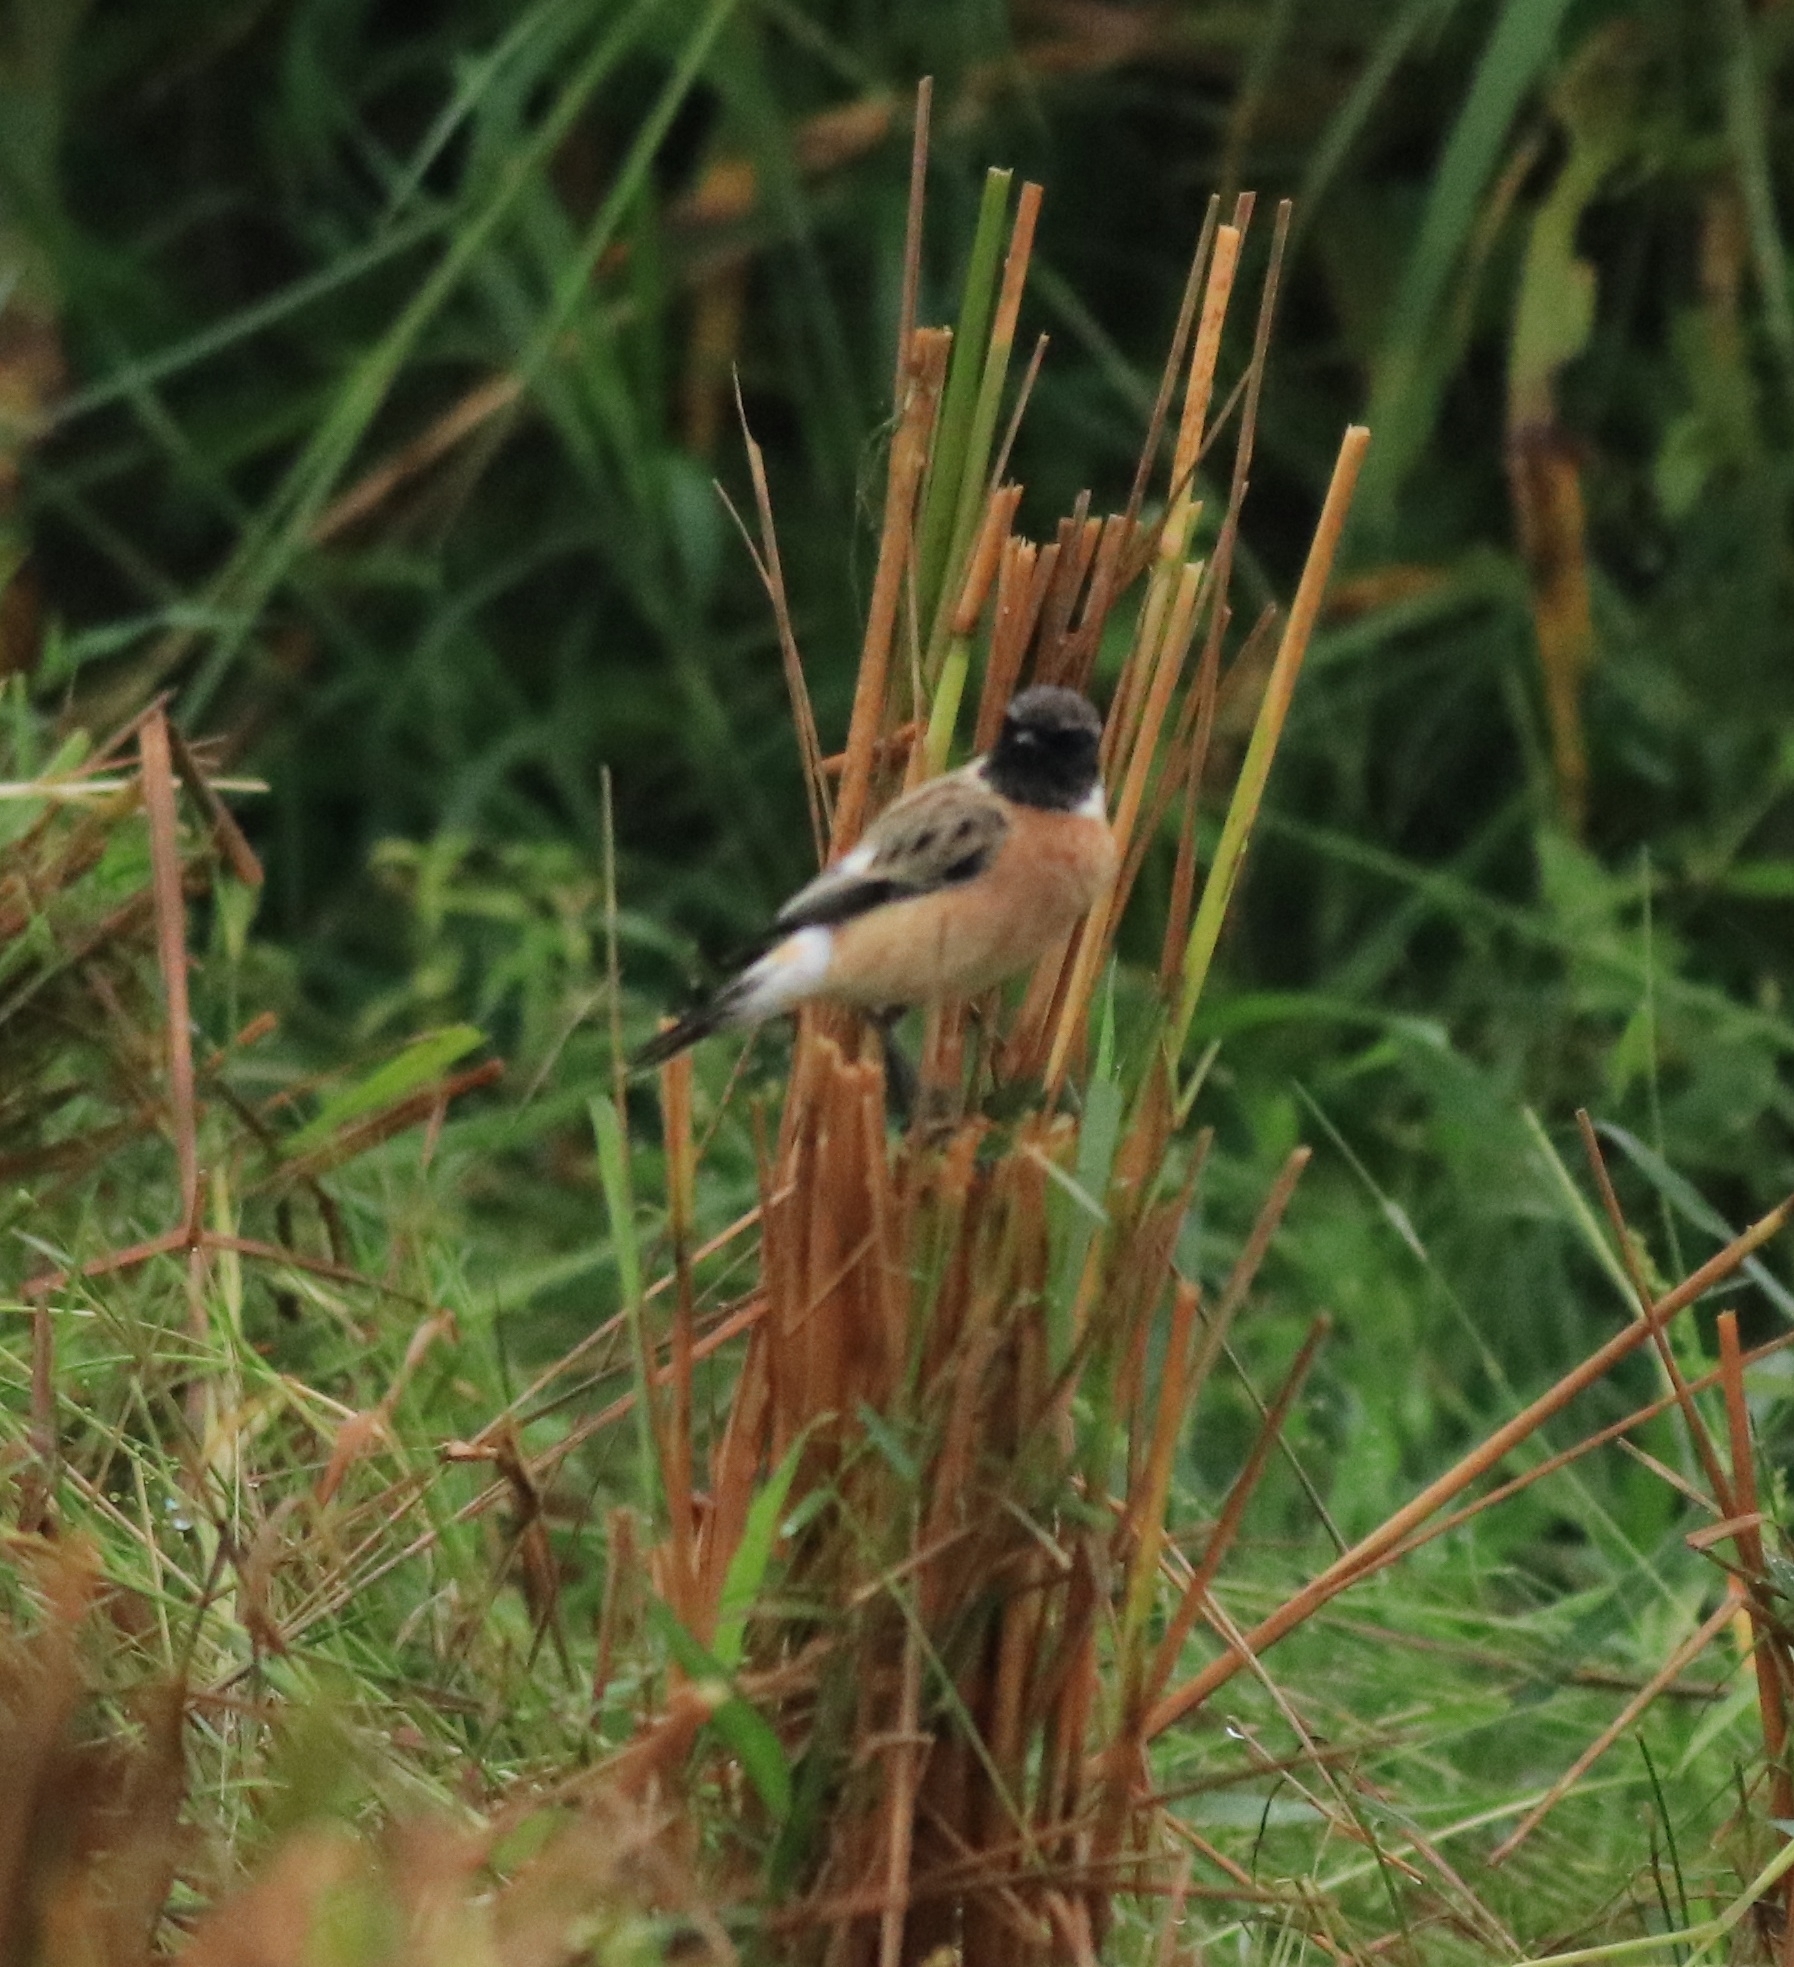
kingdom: Animalia
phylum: Chordata
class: Aves
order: Passeriformes
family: Muscicapidae
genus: Saxicola
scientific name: Saxicola maurus
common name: Siberian stonechat
